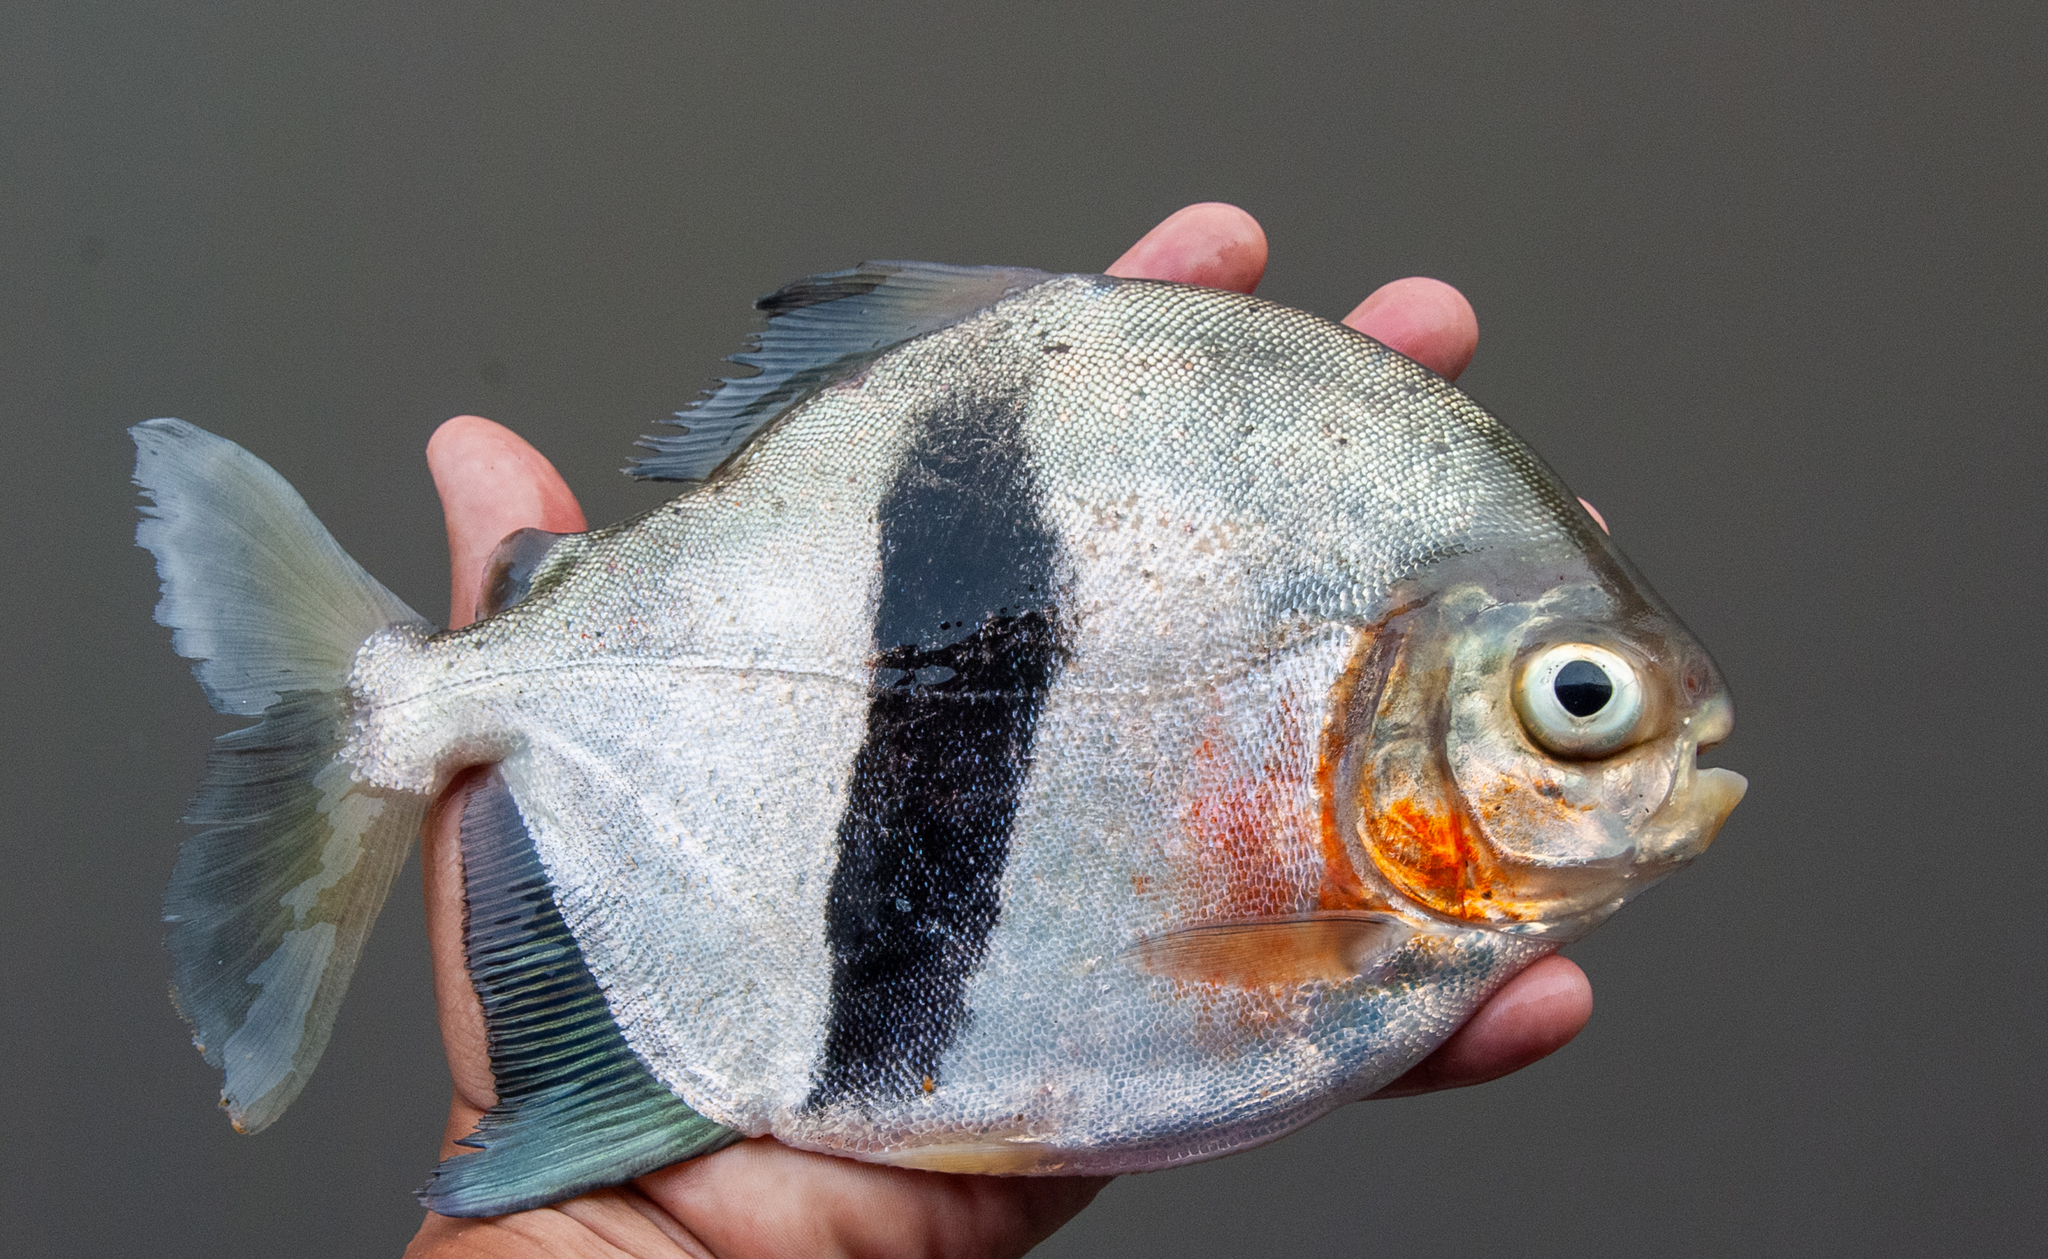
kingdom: Animalia
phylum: Chordata
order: Characiformes
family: Serrasalmidae
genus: Myloplus
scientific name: Myloplus schomburgkii
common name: Black band myleus
